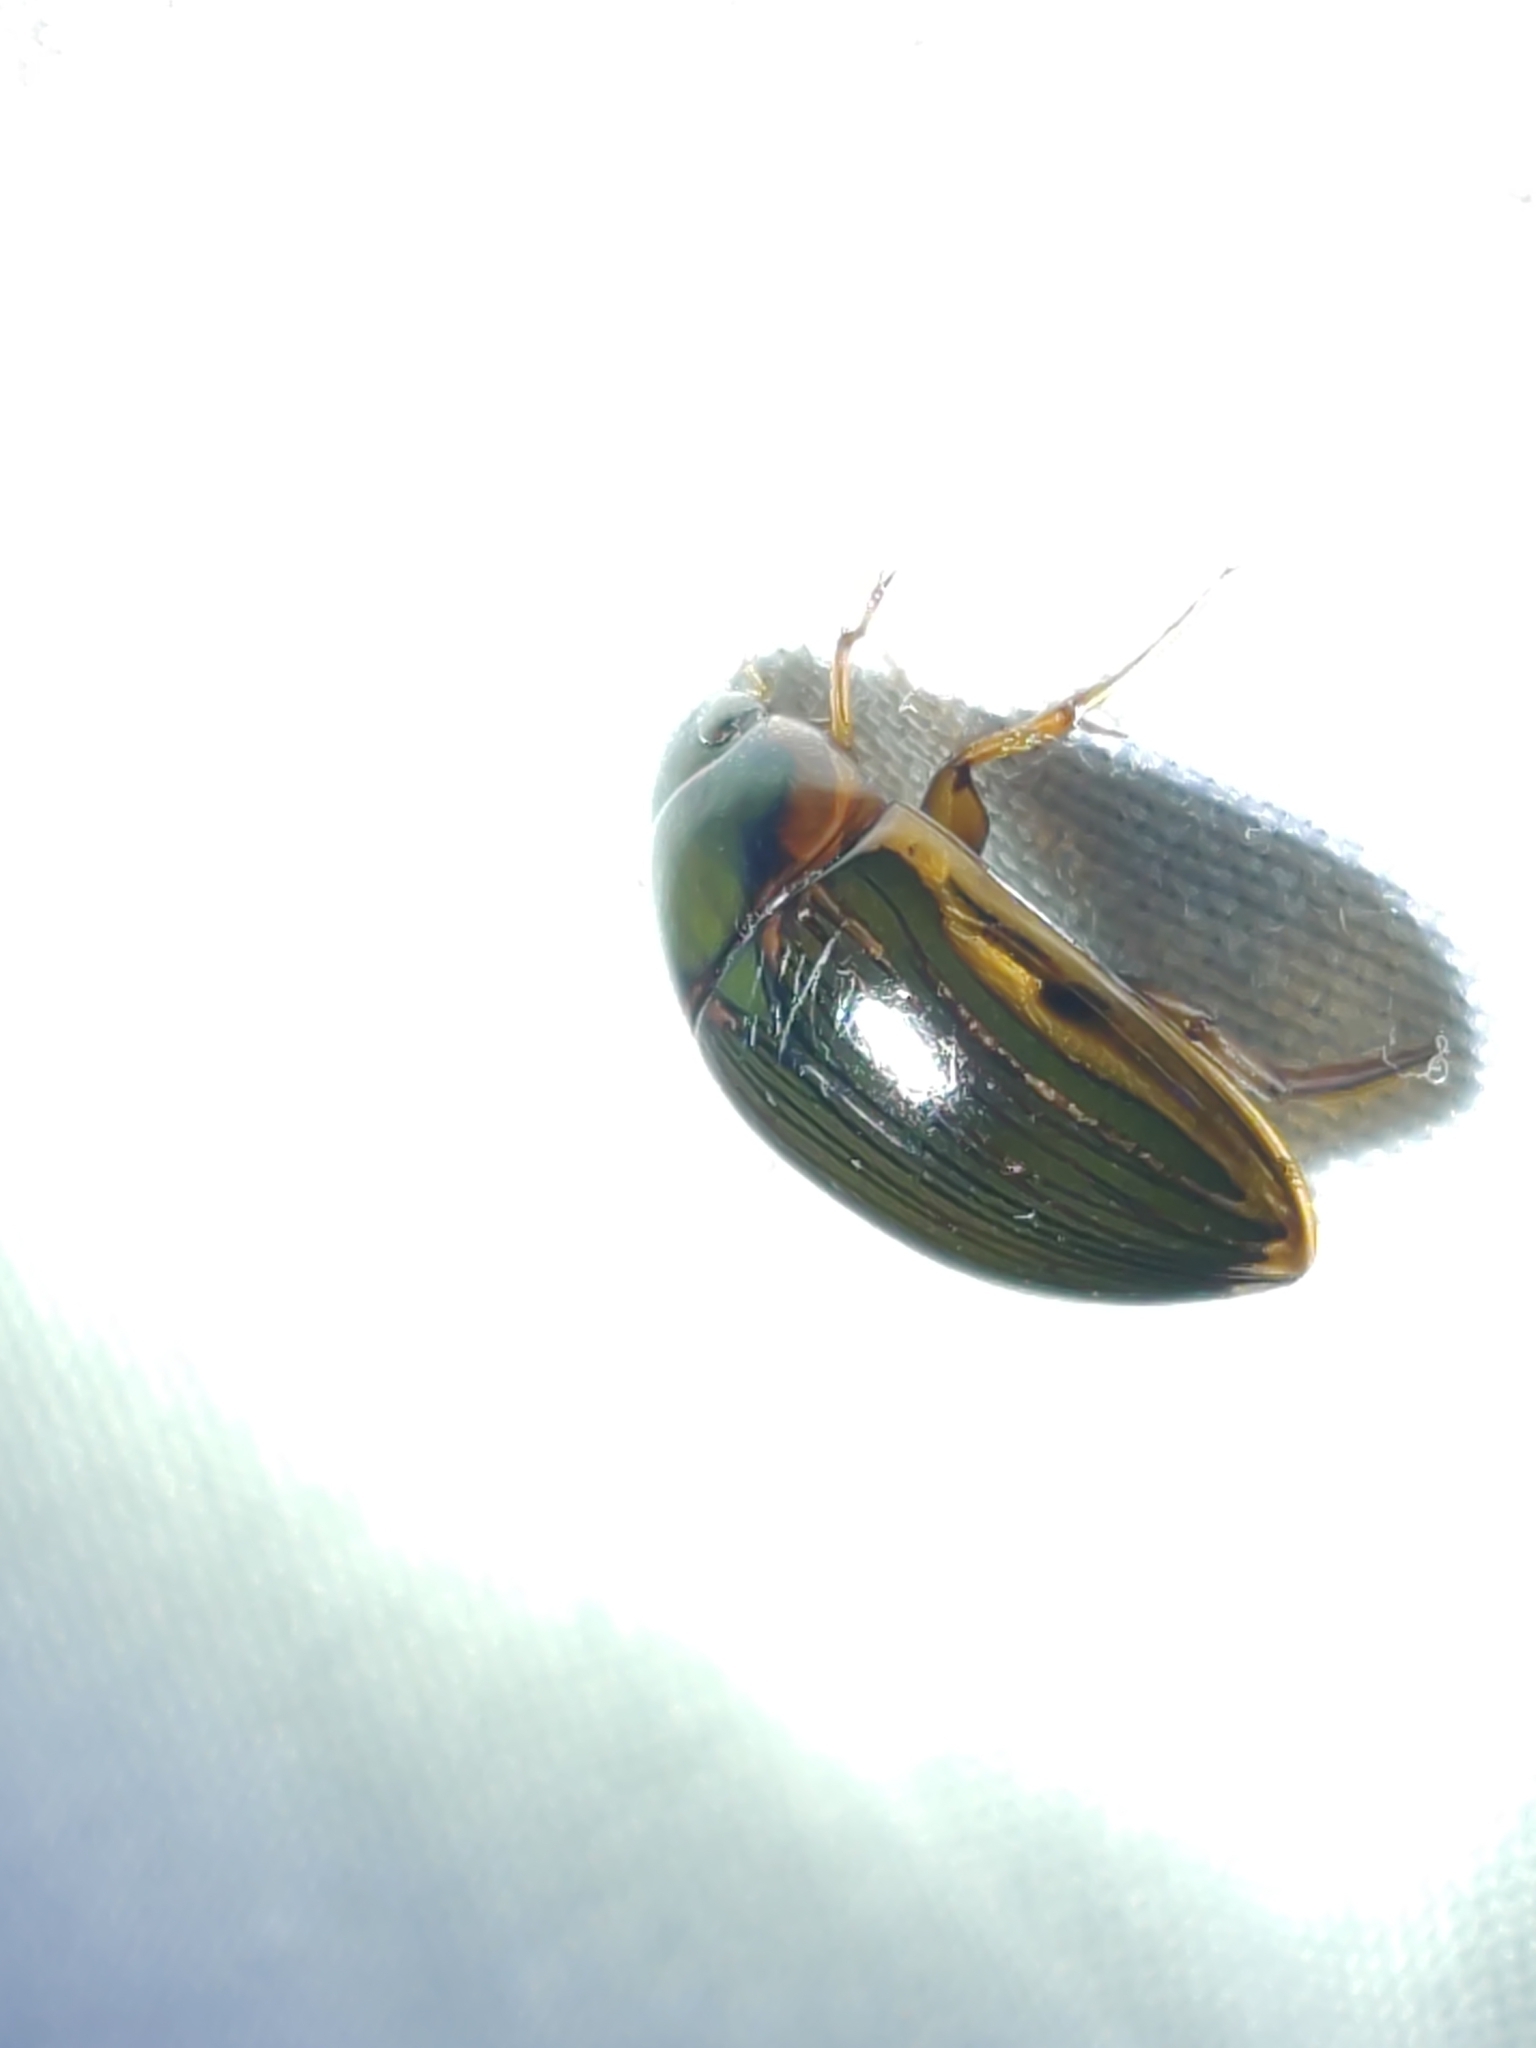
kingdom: Animalia
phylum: Arthropoda
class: Insecta
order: Coleoptera
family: Hydrophilidae
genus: Tropisternus
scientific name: Tropisternus collaris
